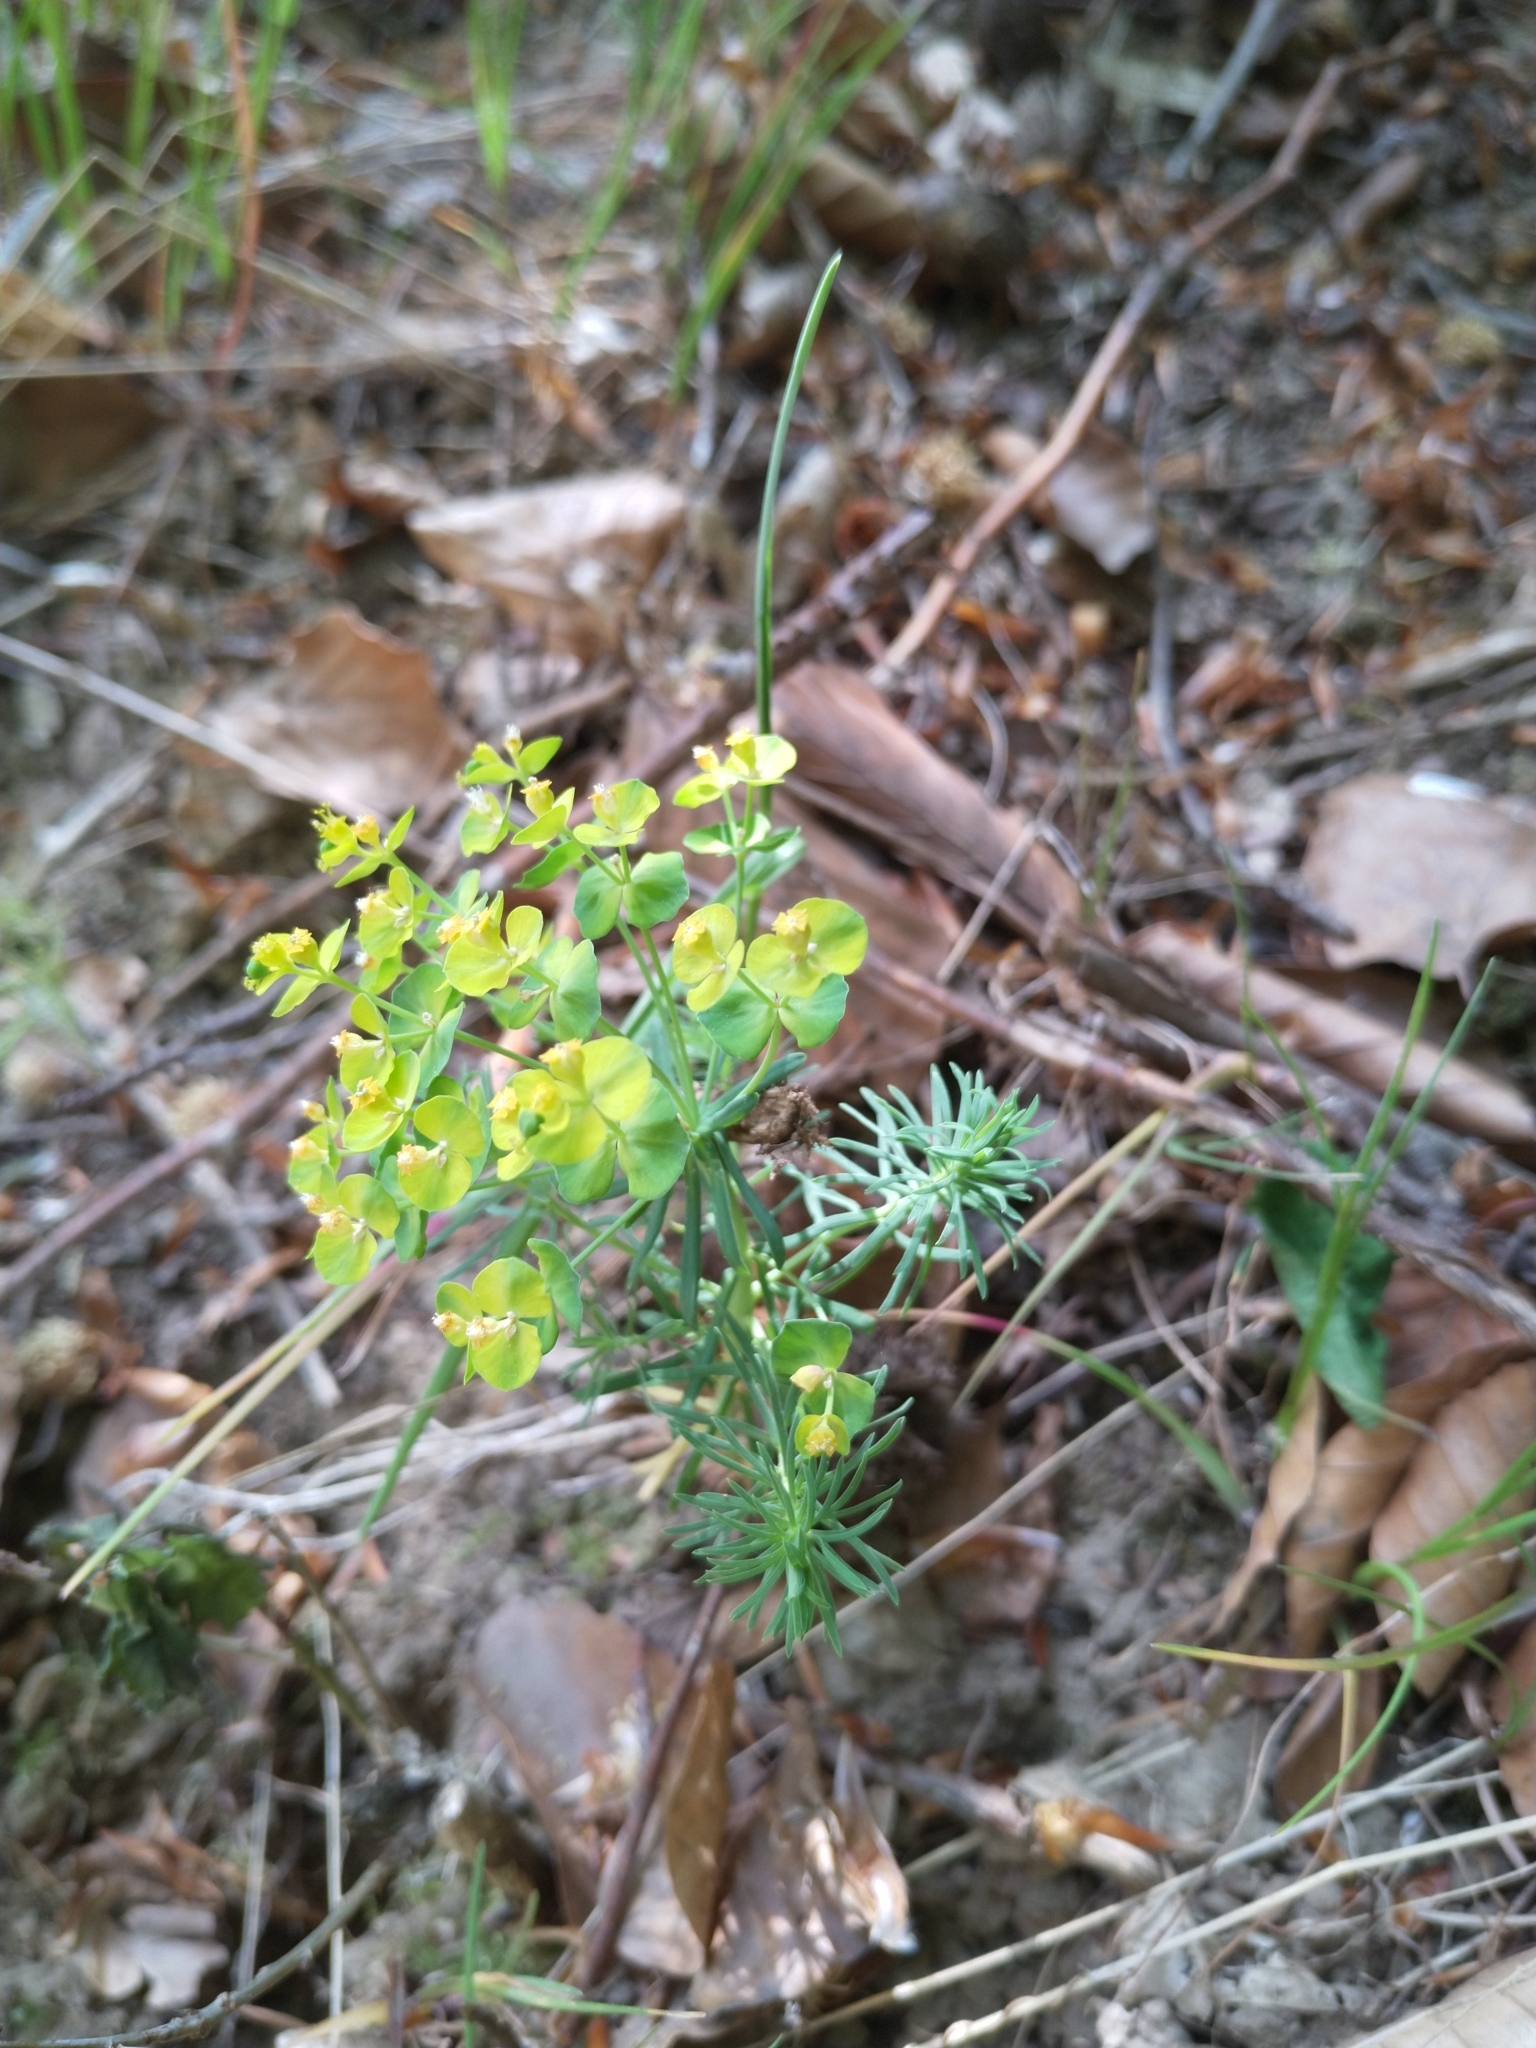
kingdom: Plantae
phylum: Tracheophyta
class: Magnoliopsida
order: Malpighiales
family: Euphorbiaceae
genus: Euphorbia
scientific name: Euphorbia cyparissias
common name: Cypress spurge
